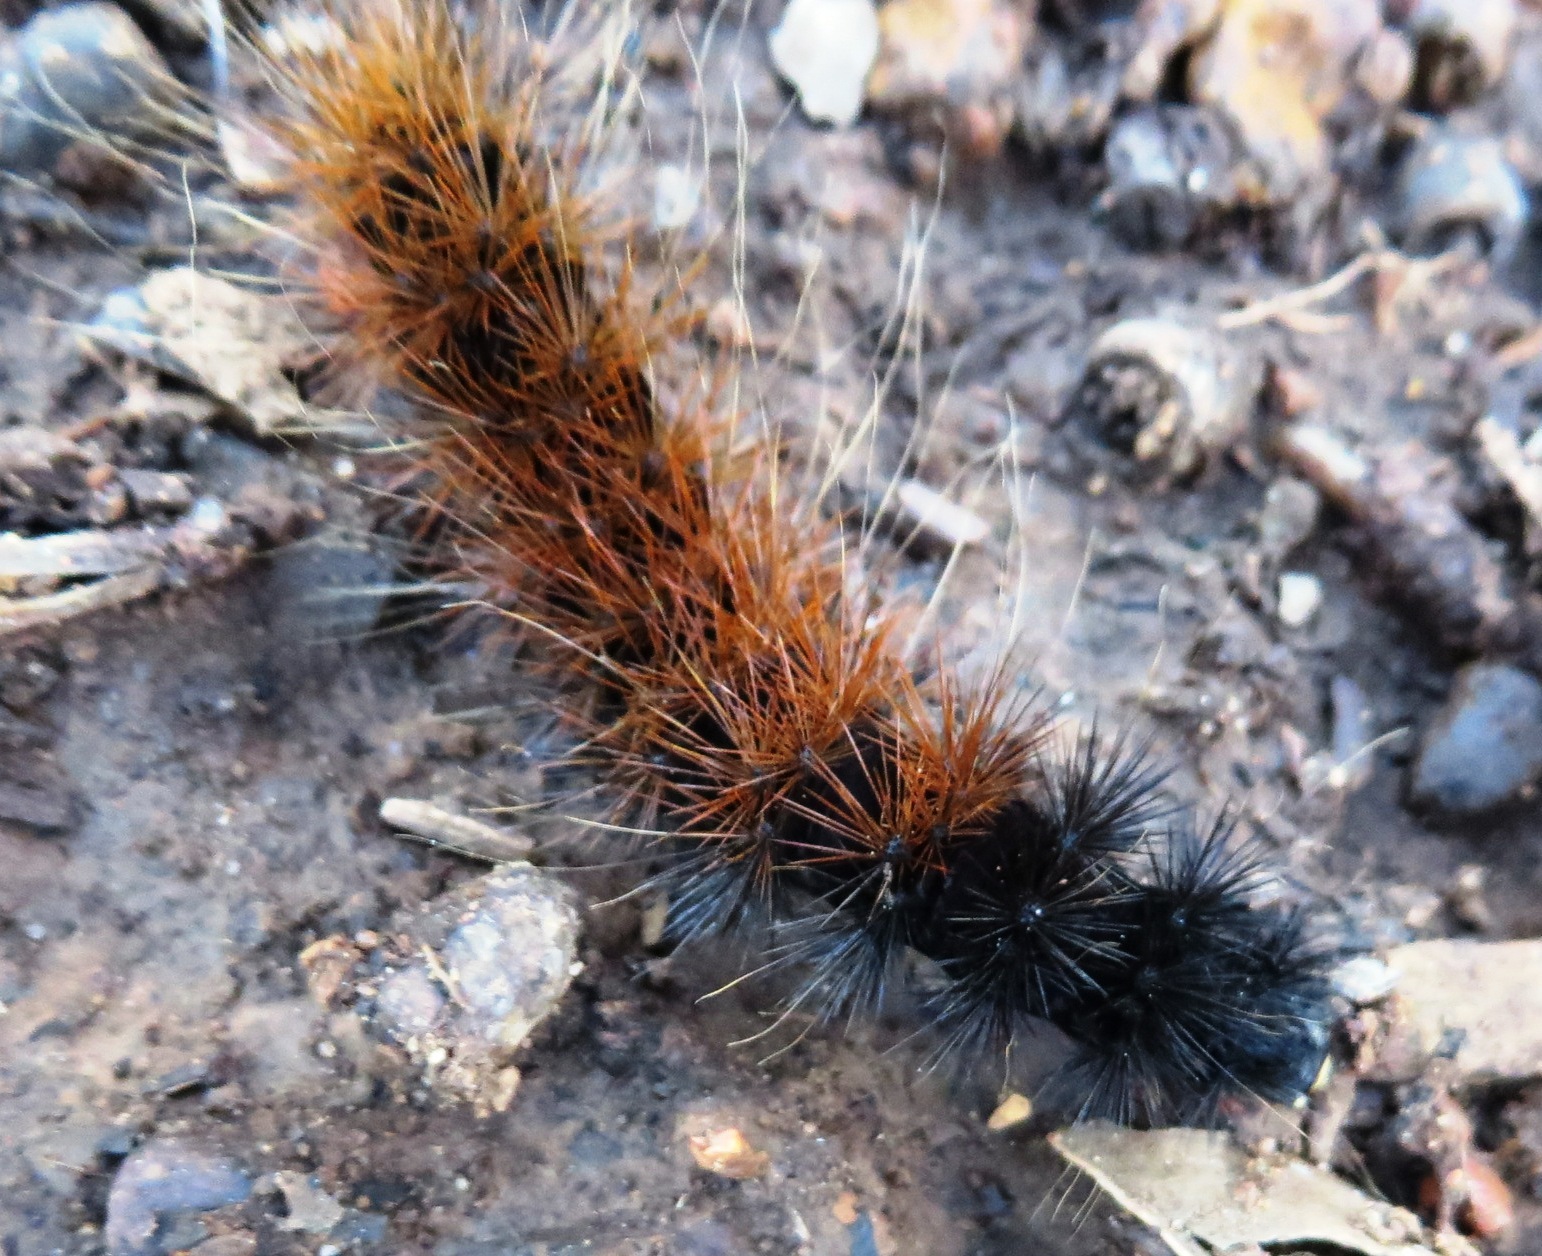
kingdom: Animalia
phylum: Arthropoda
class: Insecta
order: Lepidoptera
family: Erebidae
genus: Rhodogastria
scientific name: Rhodogastria amasis
